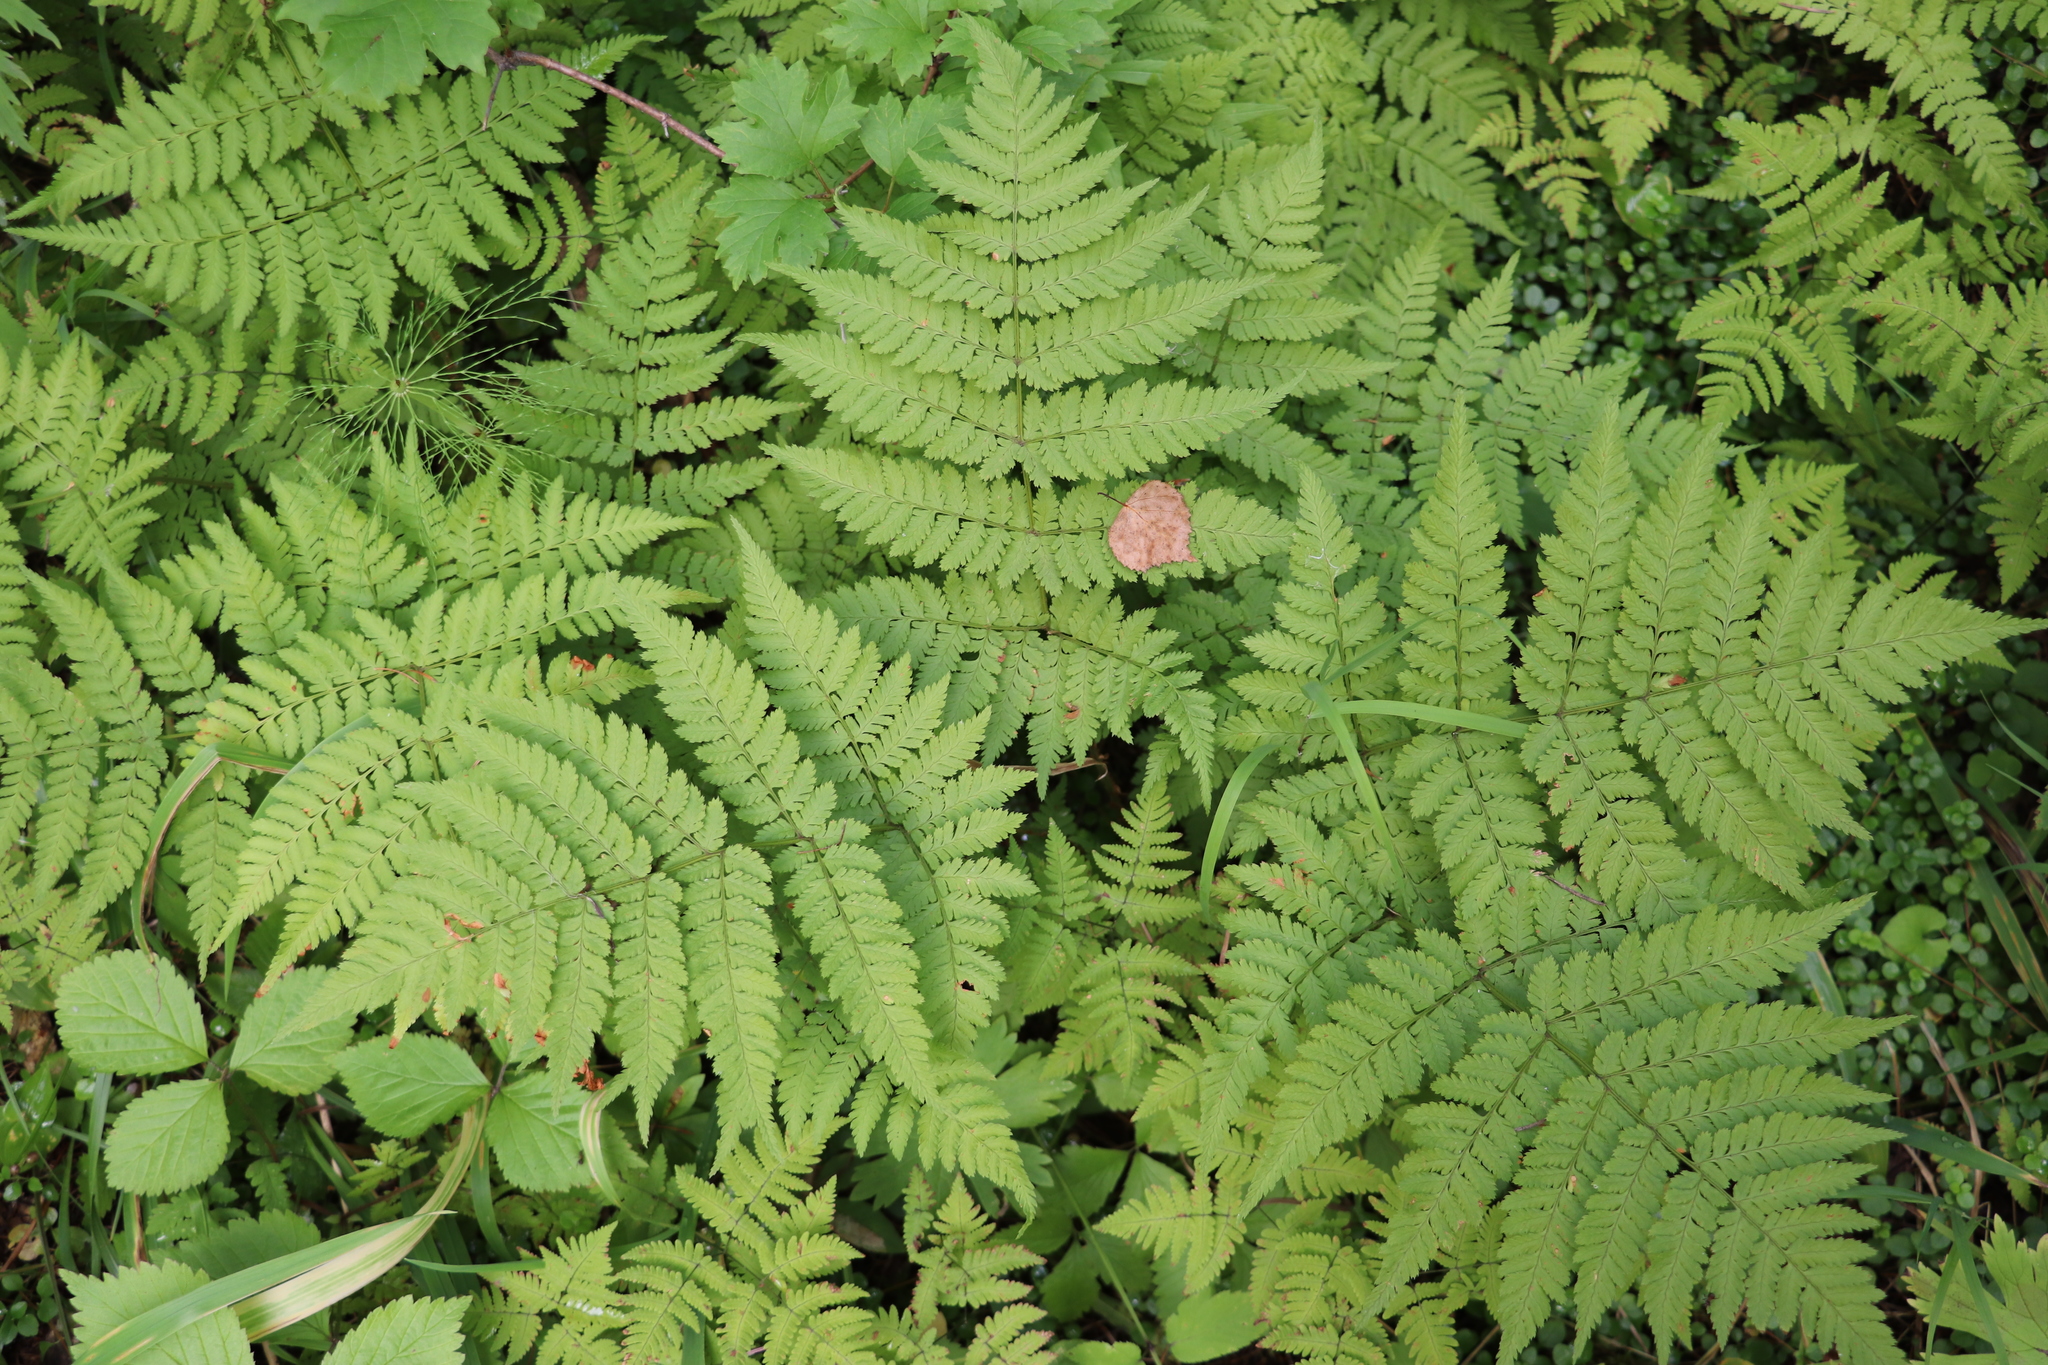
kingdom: Plantae
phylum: Tracheophyta
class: Polypodiopsida
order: Polypodiales
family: Dryopteridaceae
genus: Dryopteris
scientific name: Dryopteris expansa
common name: Northern buckler fern
